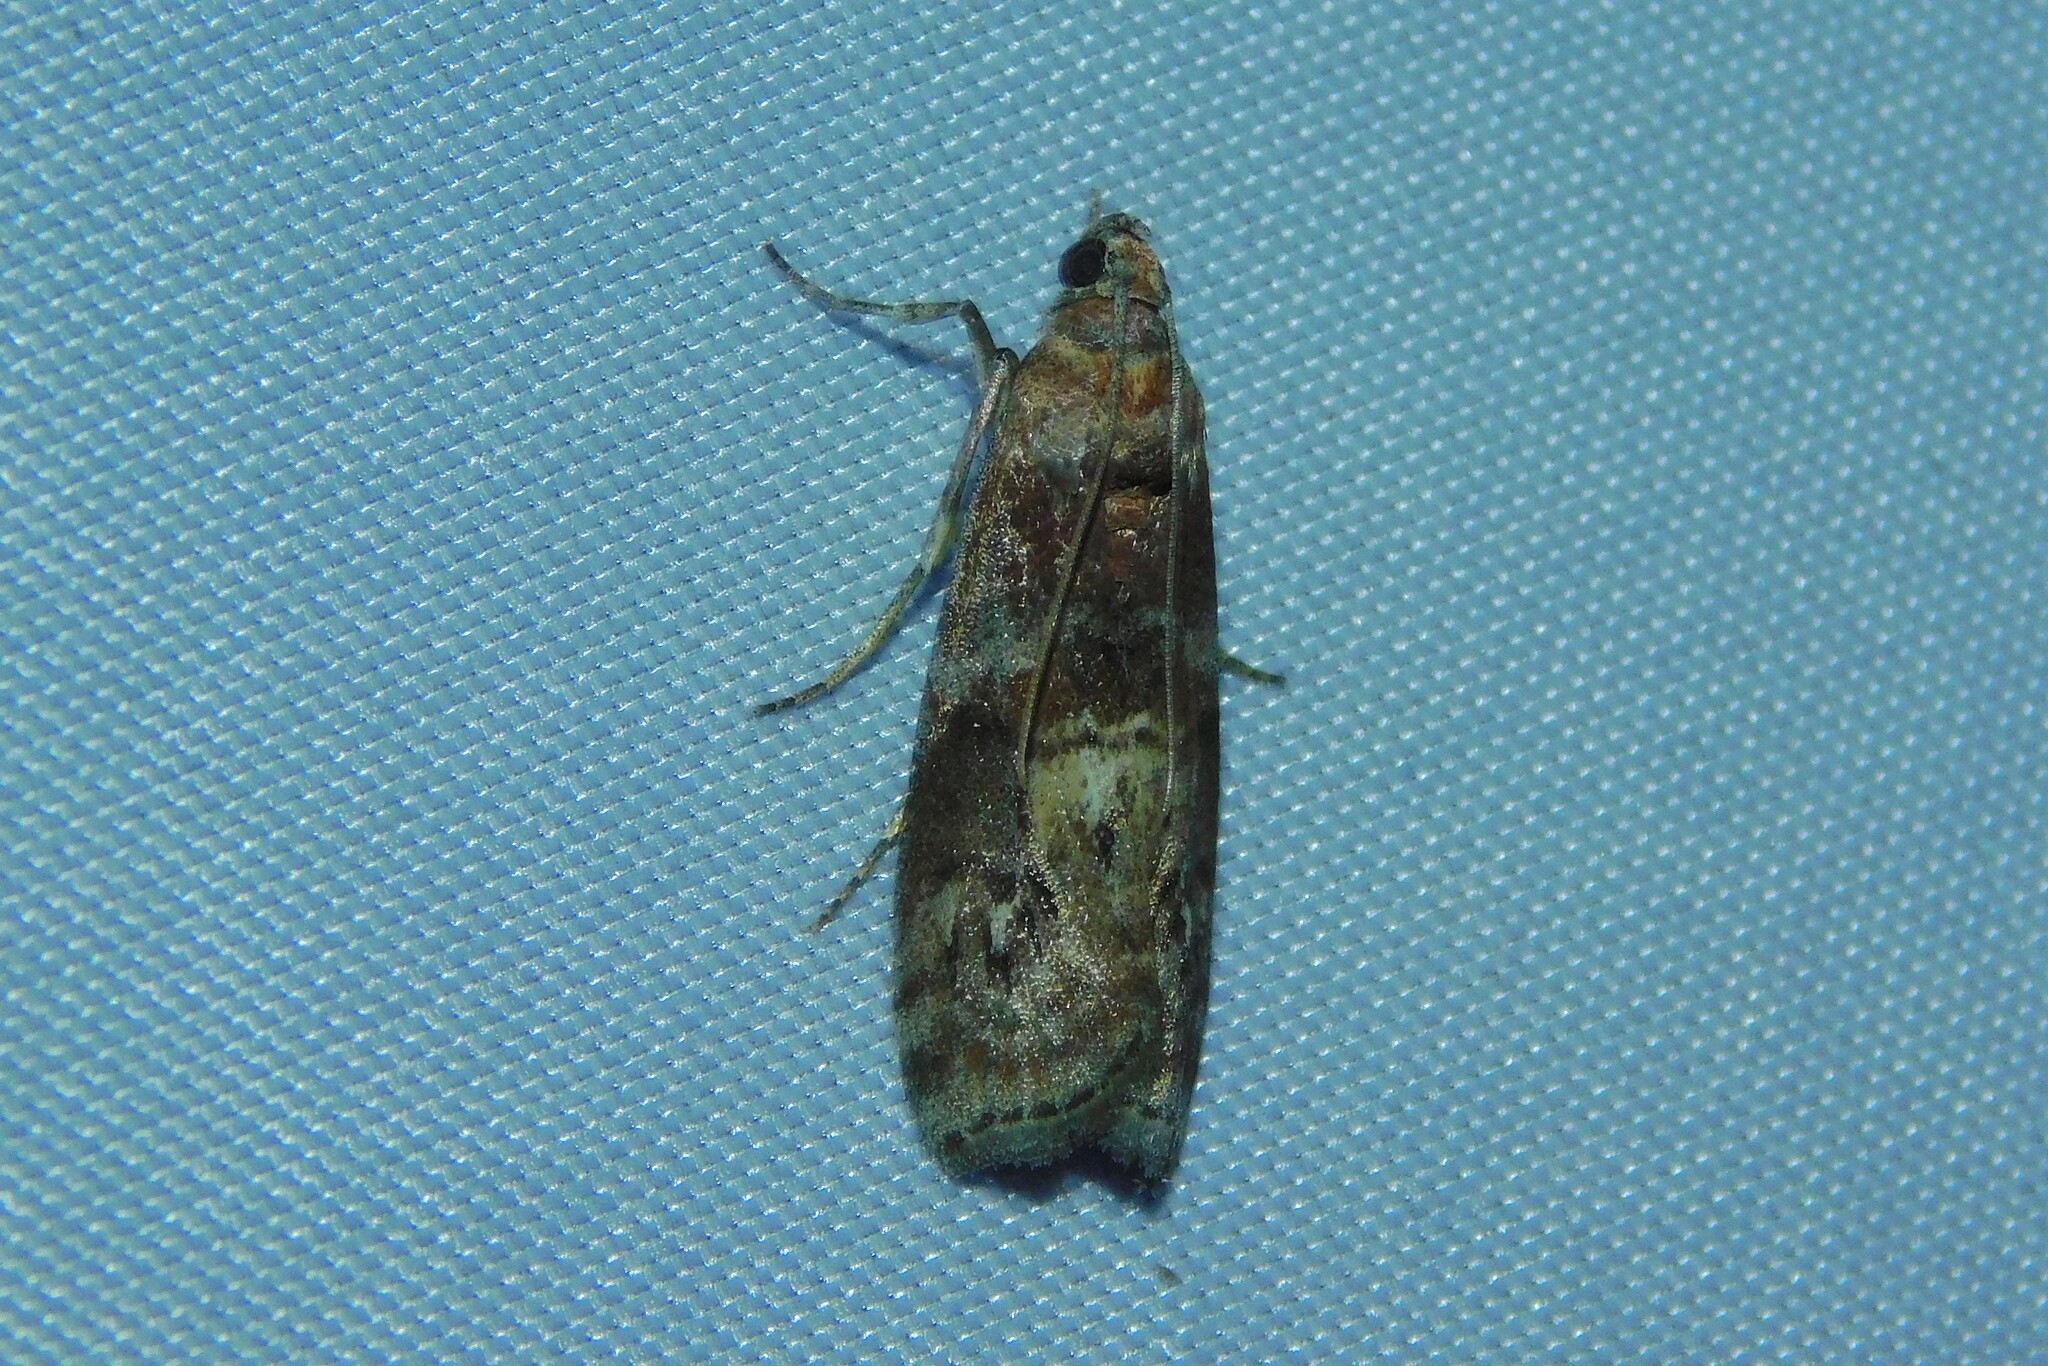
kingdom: Animalia
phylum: Arthropoda
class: Insecta
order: Lepidoptera
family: Pyralidae
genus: Phycita
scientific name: Phycita roborella
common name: Dotted oak knot-horn
